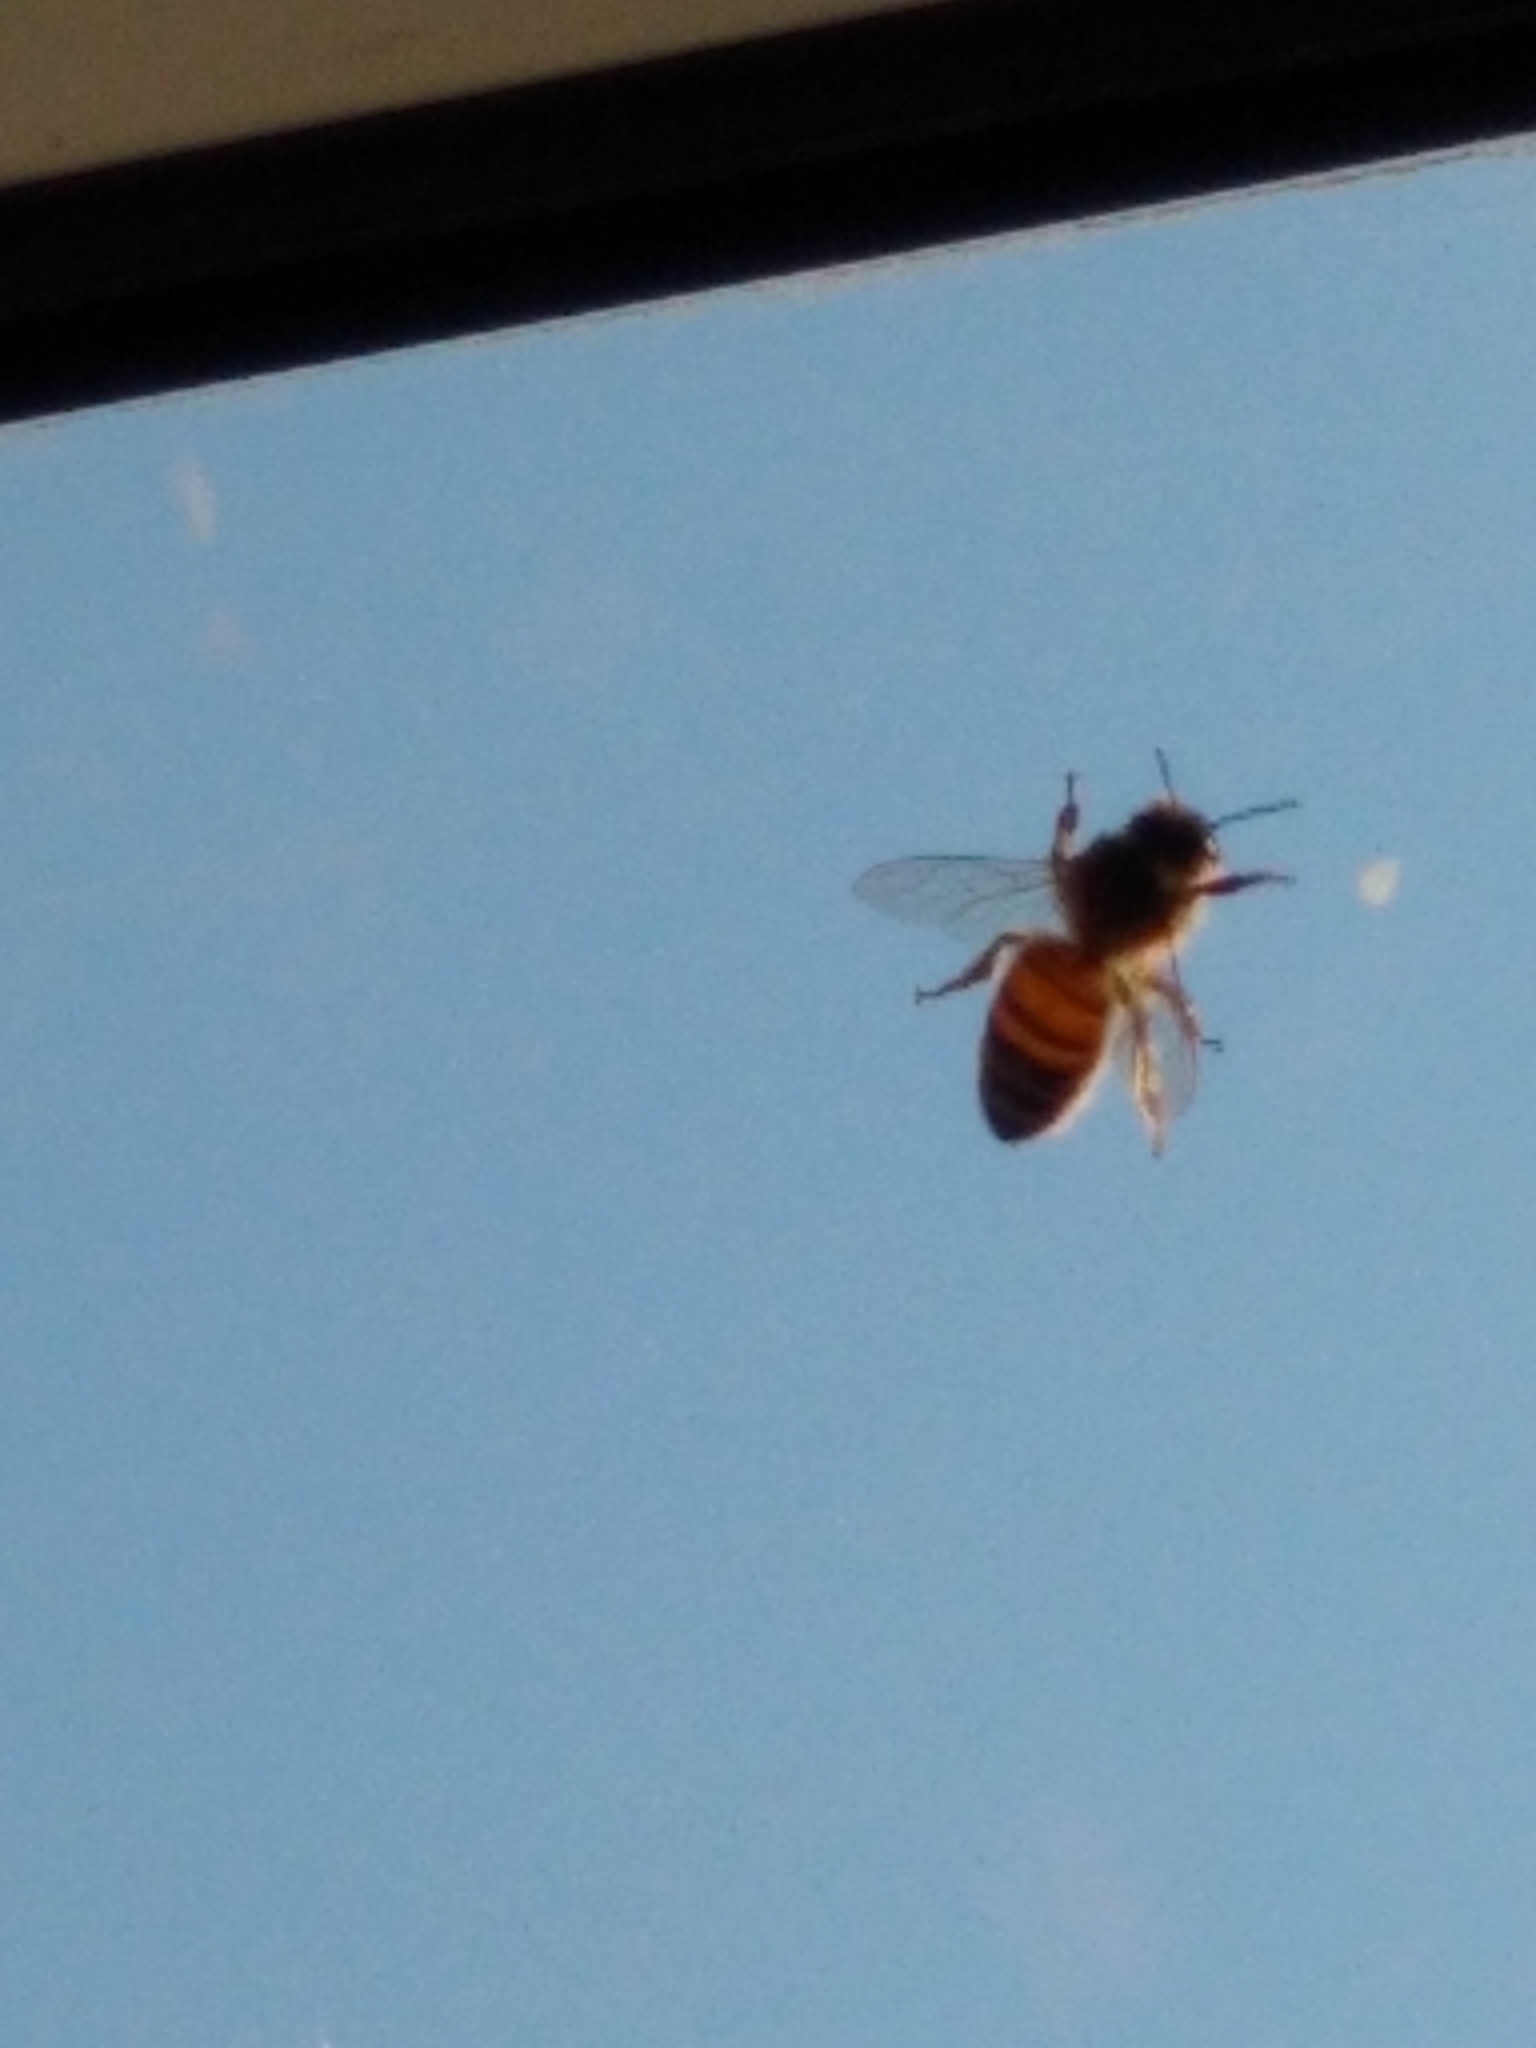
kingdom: Animalia
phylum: Arthropoda
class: Insecta
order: Hymenoptera
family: Apidae
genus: Apis
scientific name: Apis mellifera
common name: Honey bee
